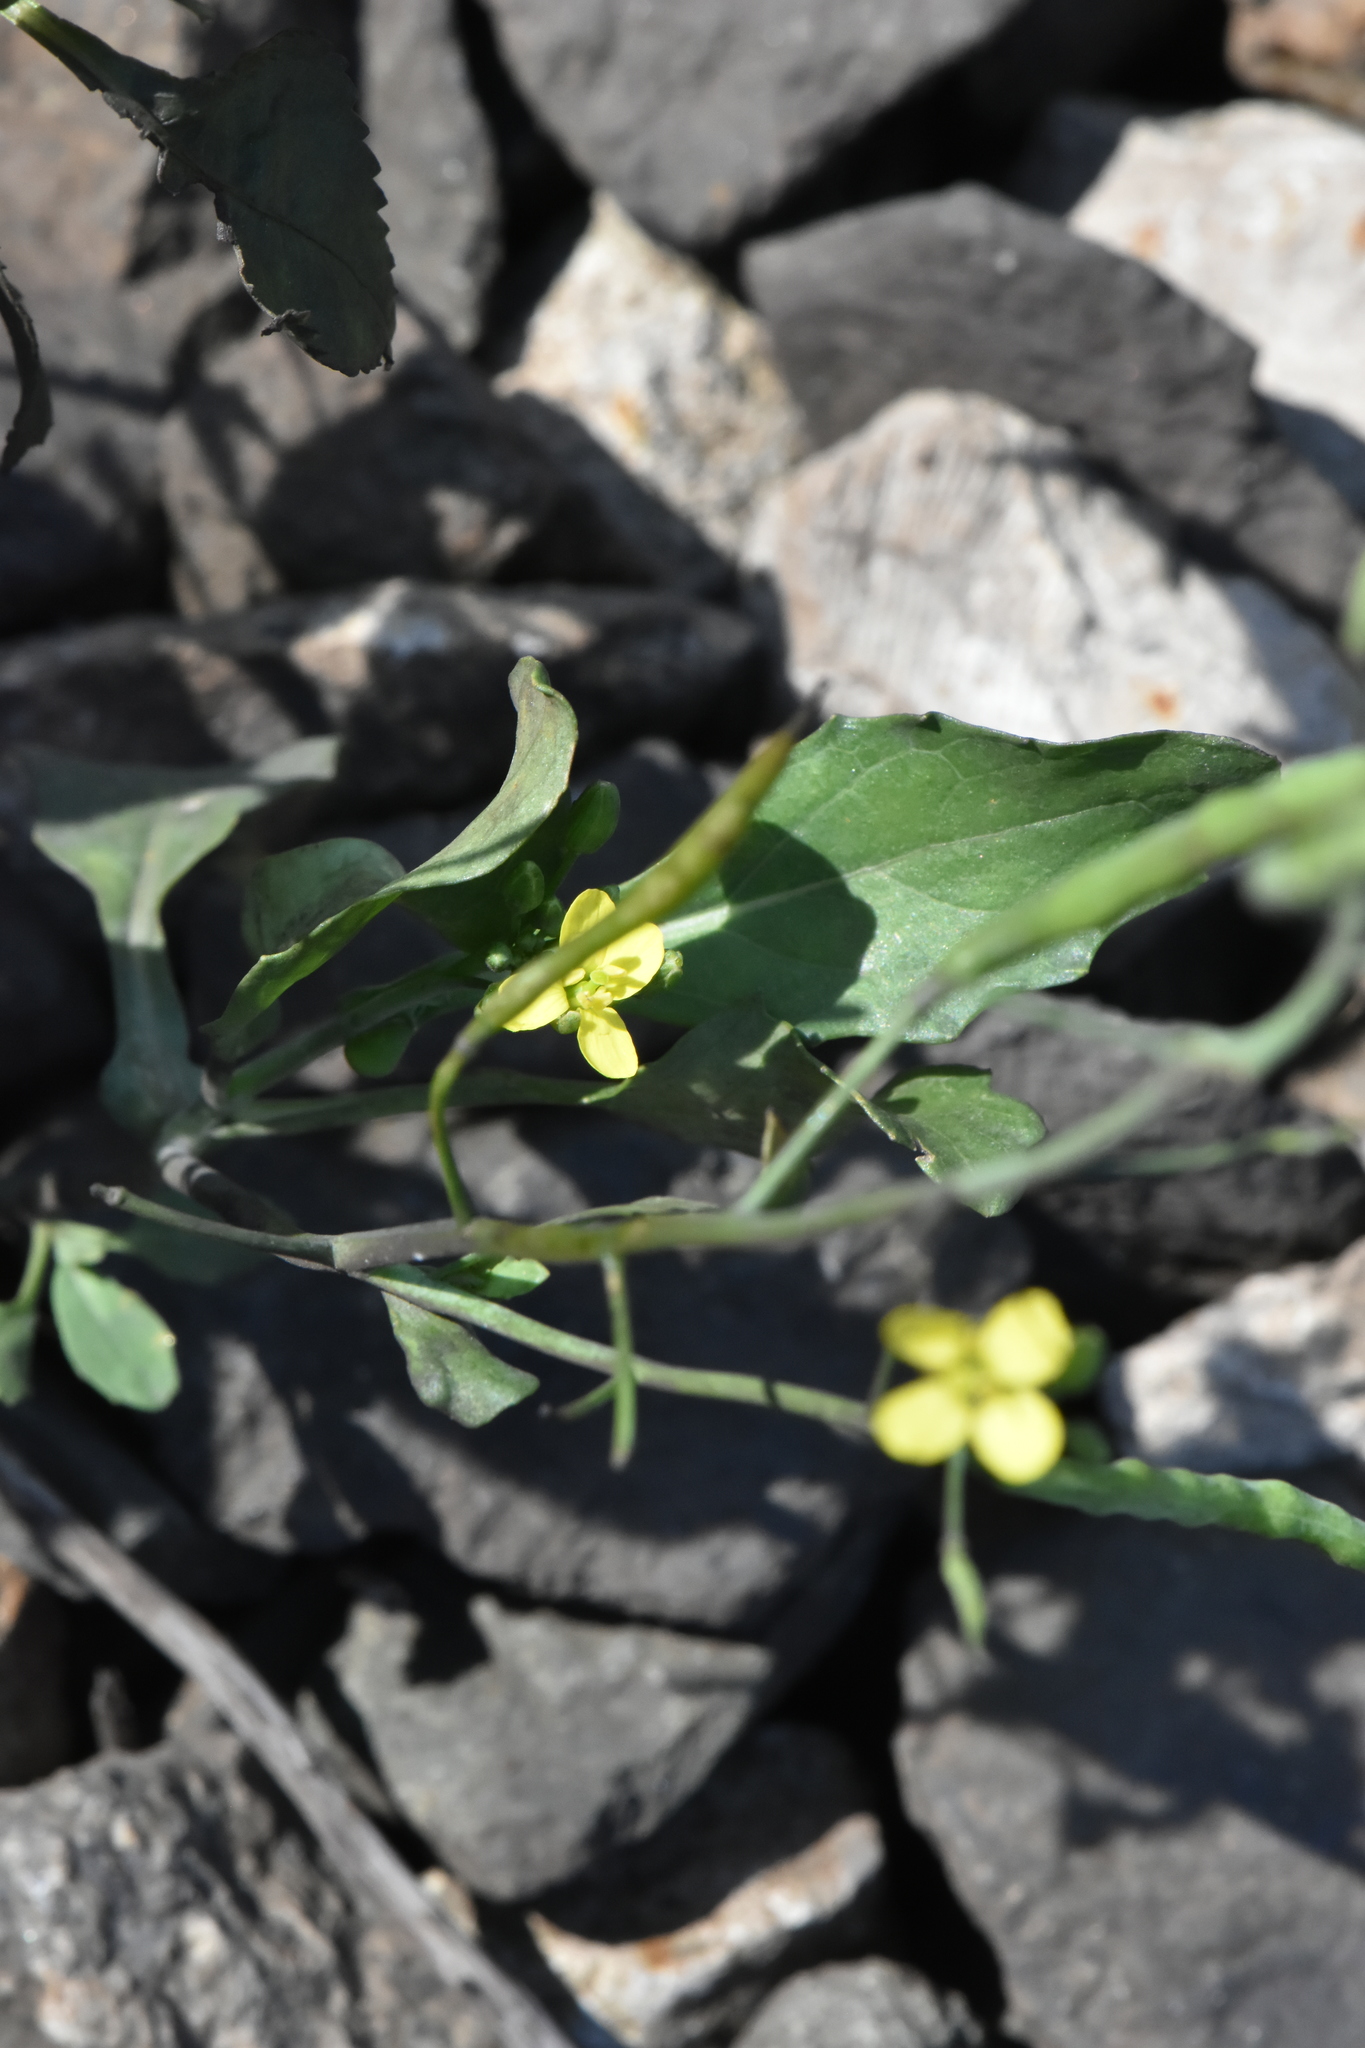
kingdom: Plantae
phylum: Tracheophyta
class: Magnoliopsida
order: Brassicales
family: Brassicaceae
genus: Brassica
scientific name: Brassica napus
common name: Rape
